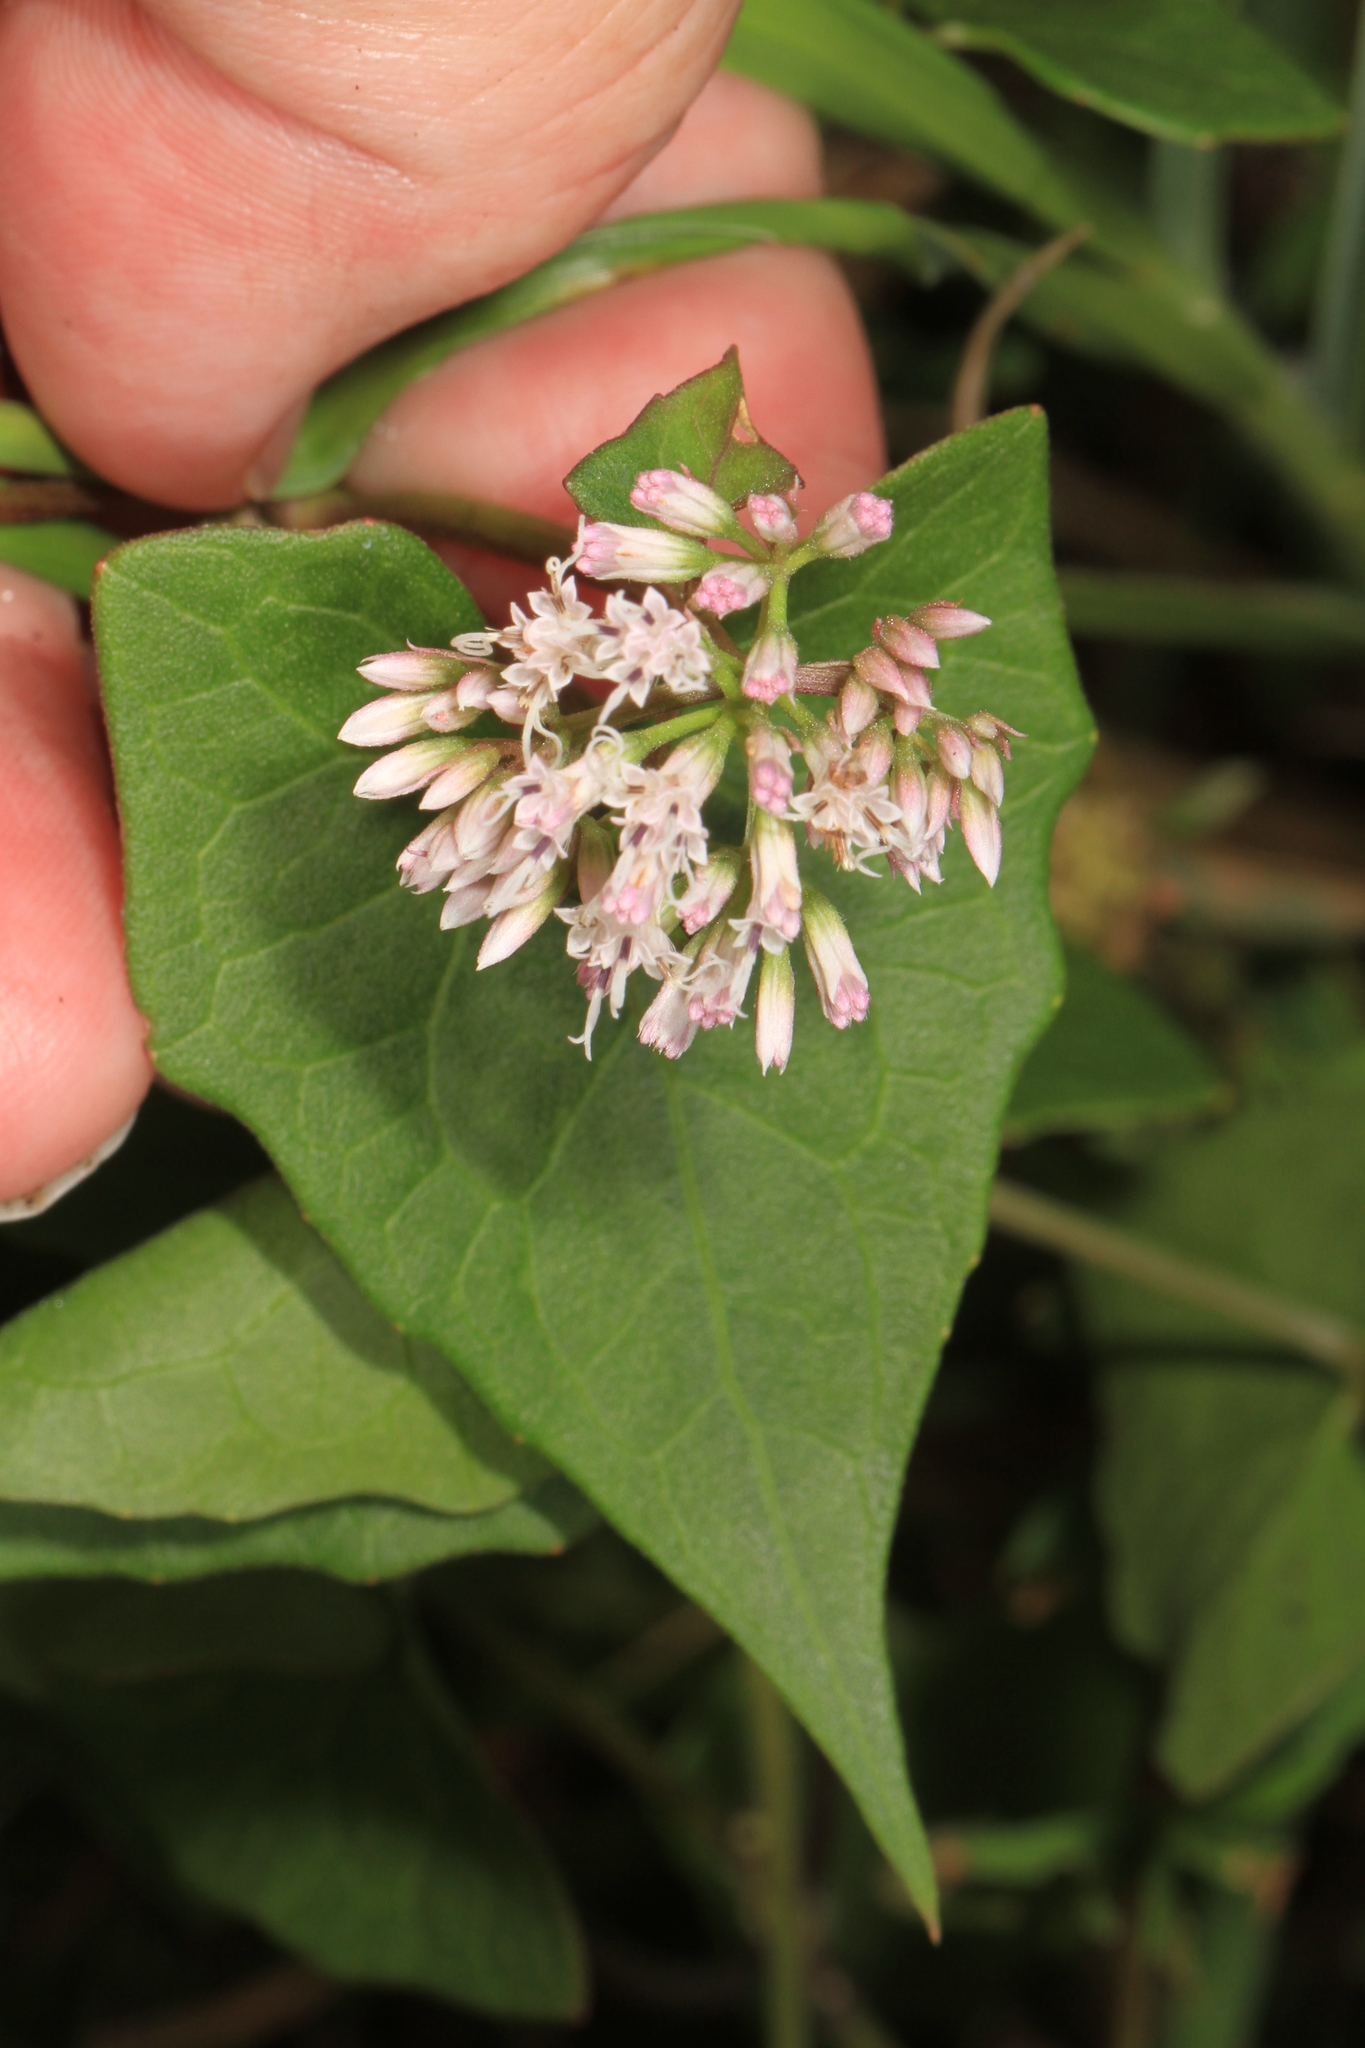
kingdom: Plantae
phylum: Tracheophyta
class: Magnoliopsida
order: Asterales
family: Asteraceae
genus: Mikania
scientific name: Mikania scandens
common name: Climbing hempvine
